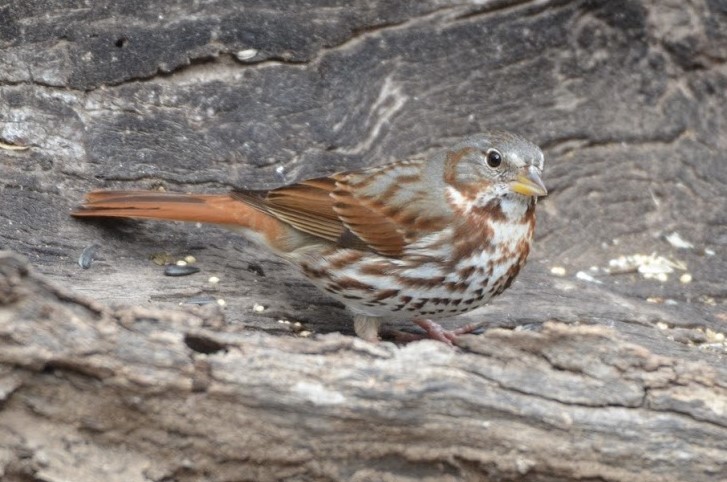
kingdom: Animalia
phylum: Chordata
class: Aves
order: Passeriformes
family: Passerellidae
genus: Passerella
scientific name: Passerella iliaca
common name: Fox sparrow
